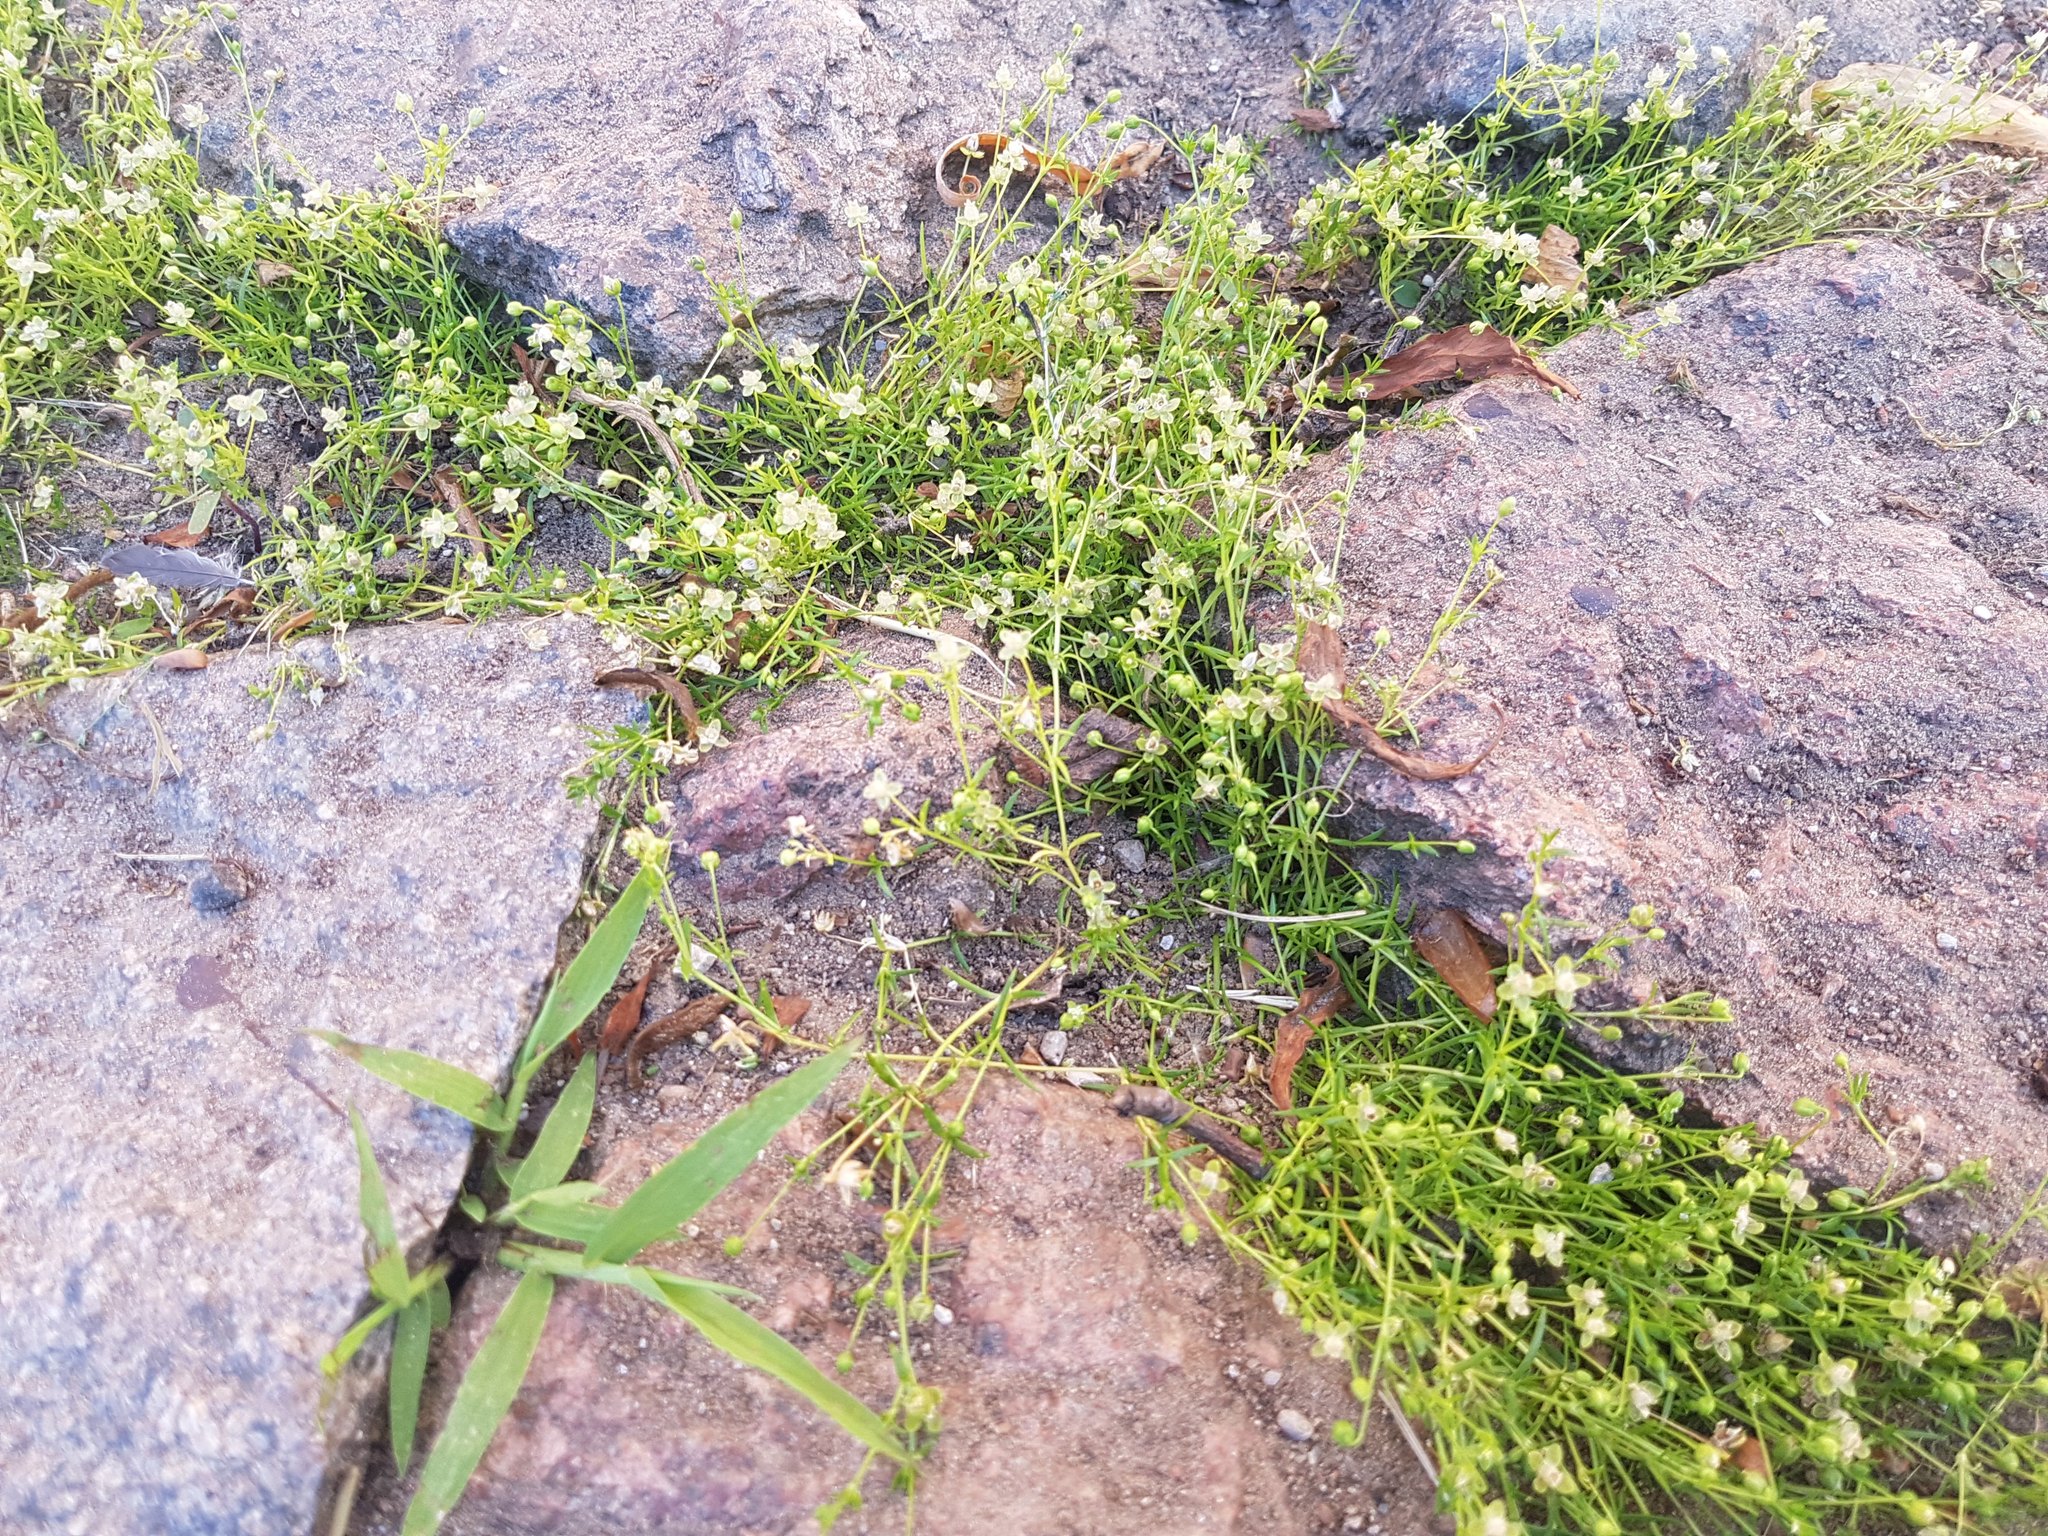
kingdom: Plantae
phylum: Tracheophyta
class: Magnoliopsida
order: Caryophyllales
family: Caryophyllaceae
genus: Sagina
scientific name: Sagina procumbens
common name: Procumbent pearlwort
